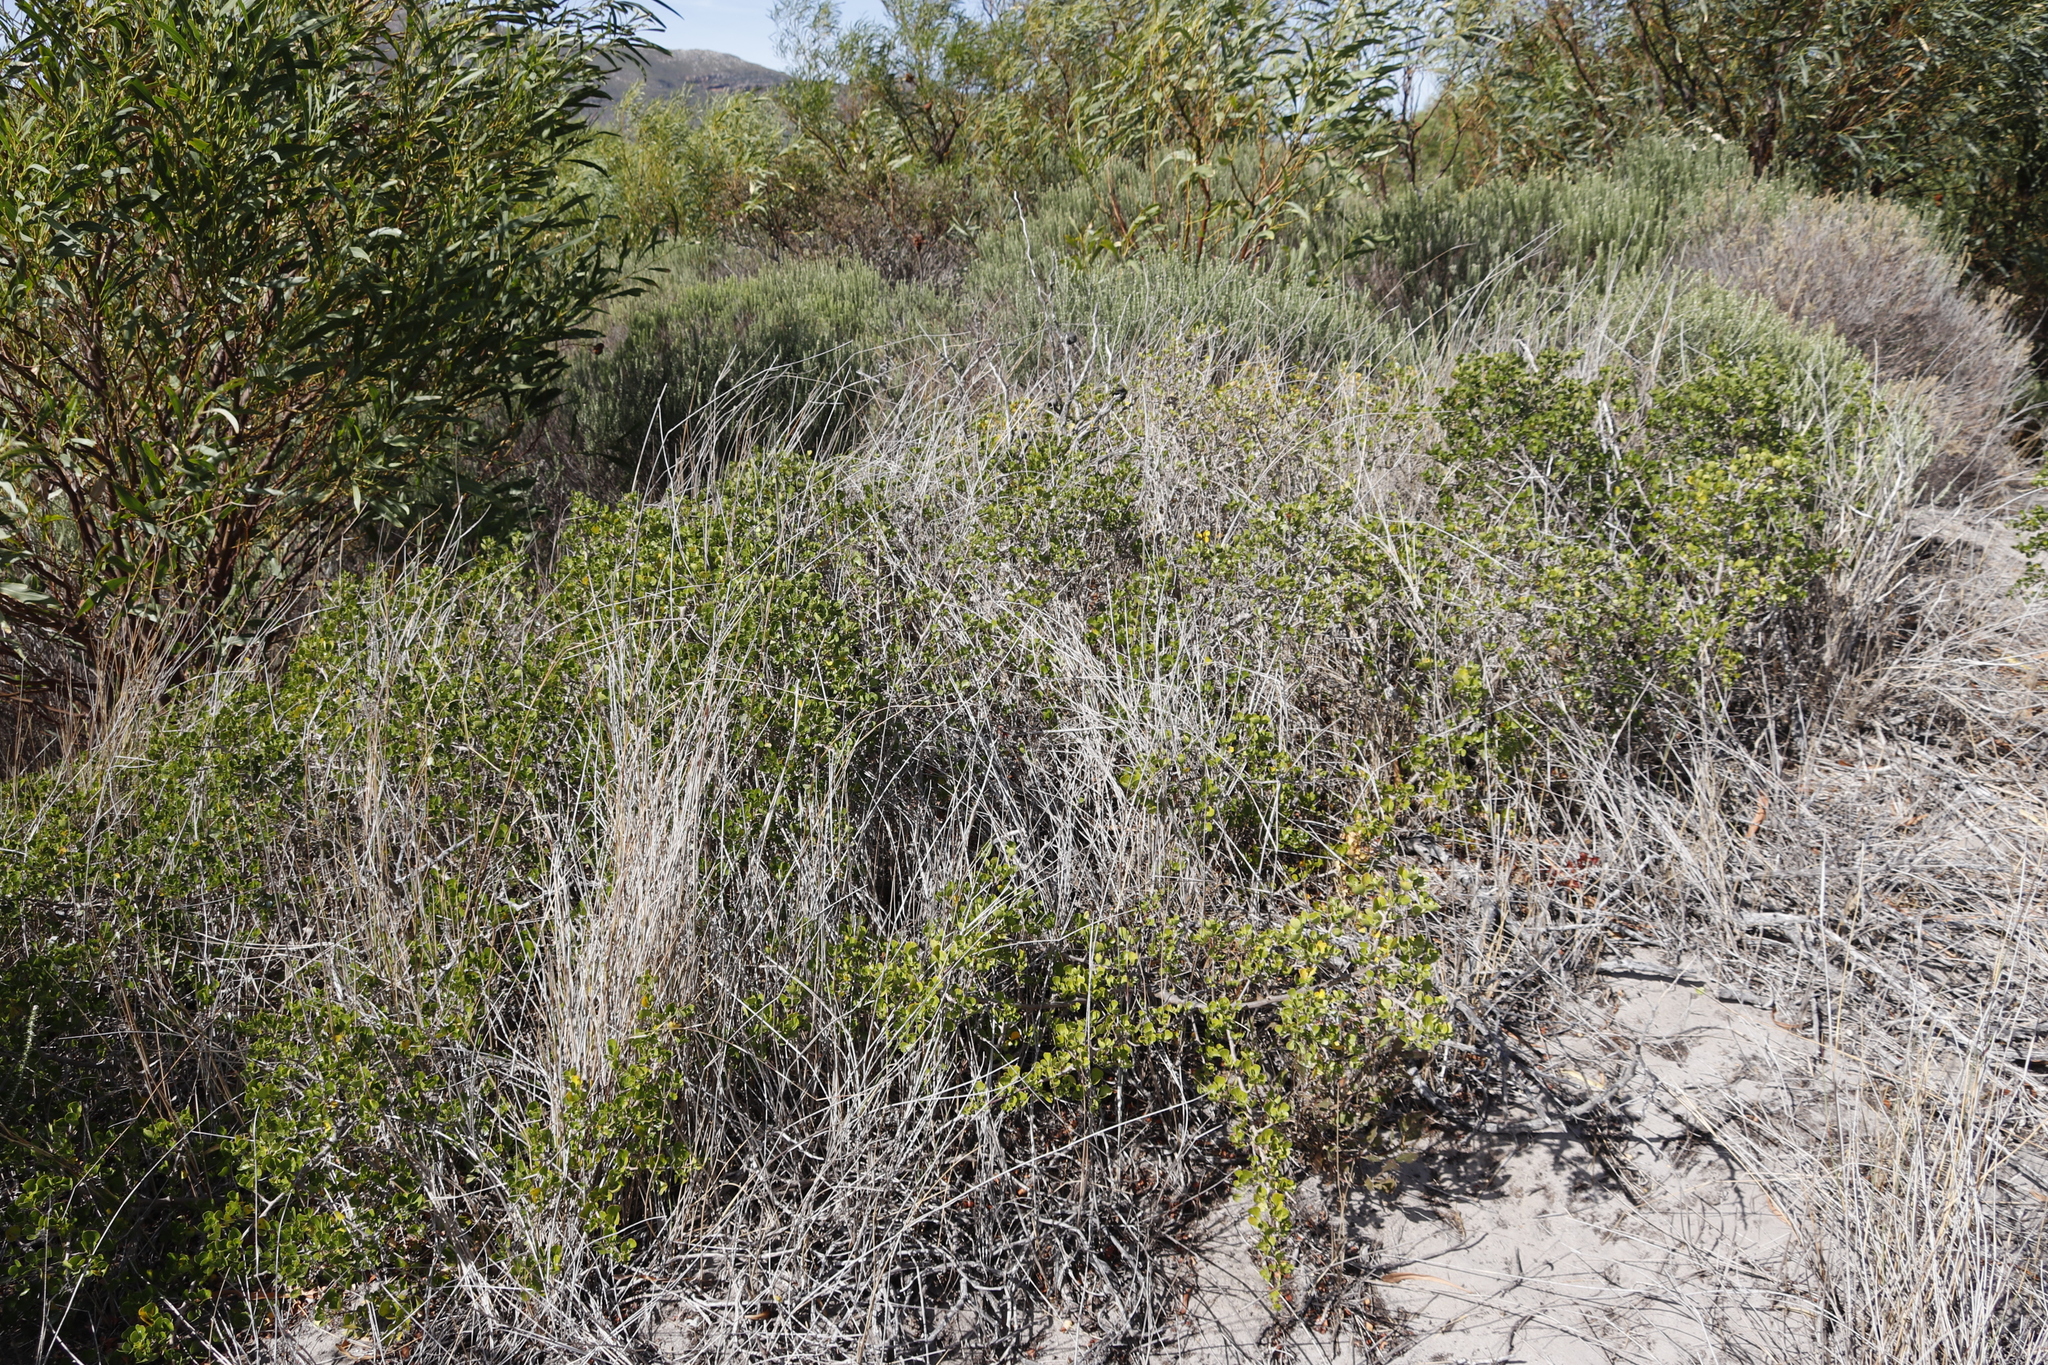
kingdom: Plantae
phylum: Tracheophyta
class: Magnoliopsida
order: Sapindales
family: Anacardiaceae
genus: Searsia
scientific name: Searsia glauca
